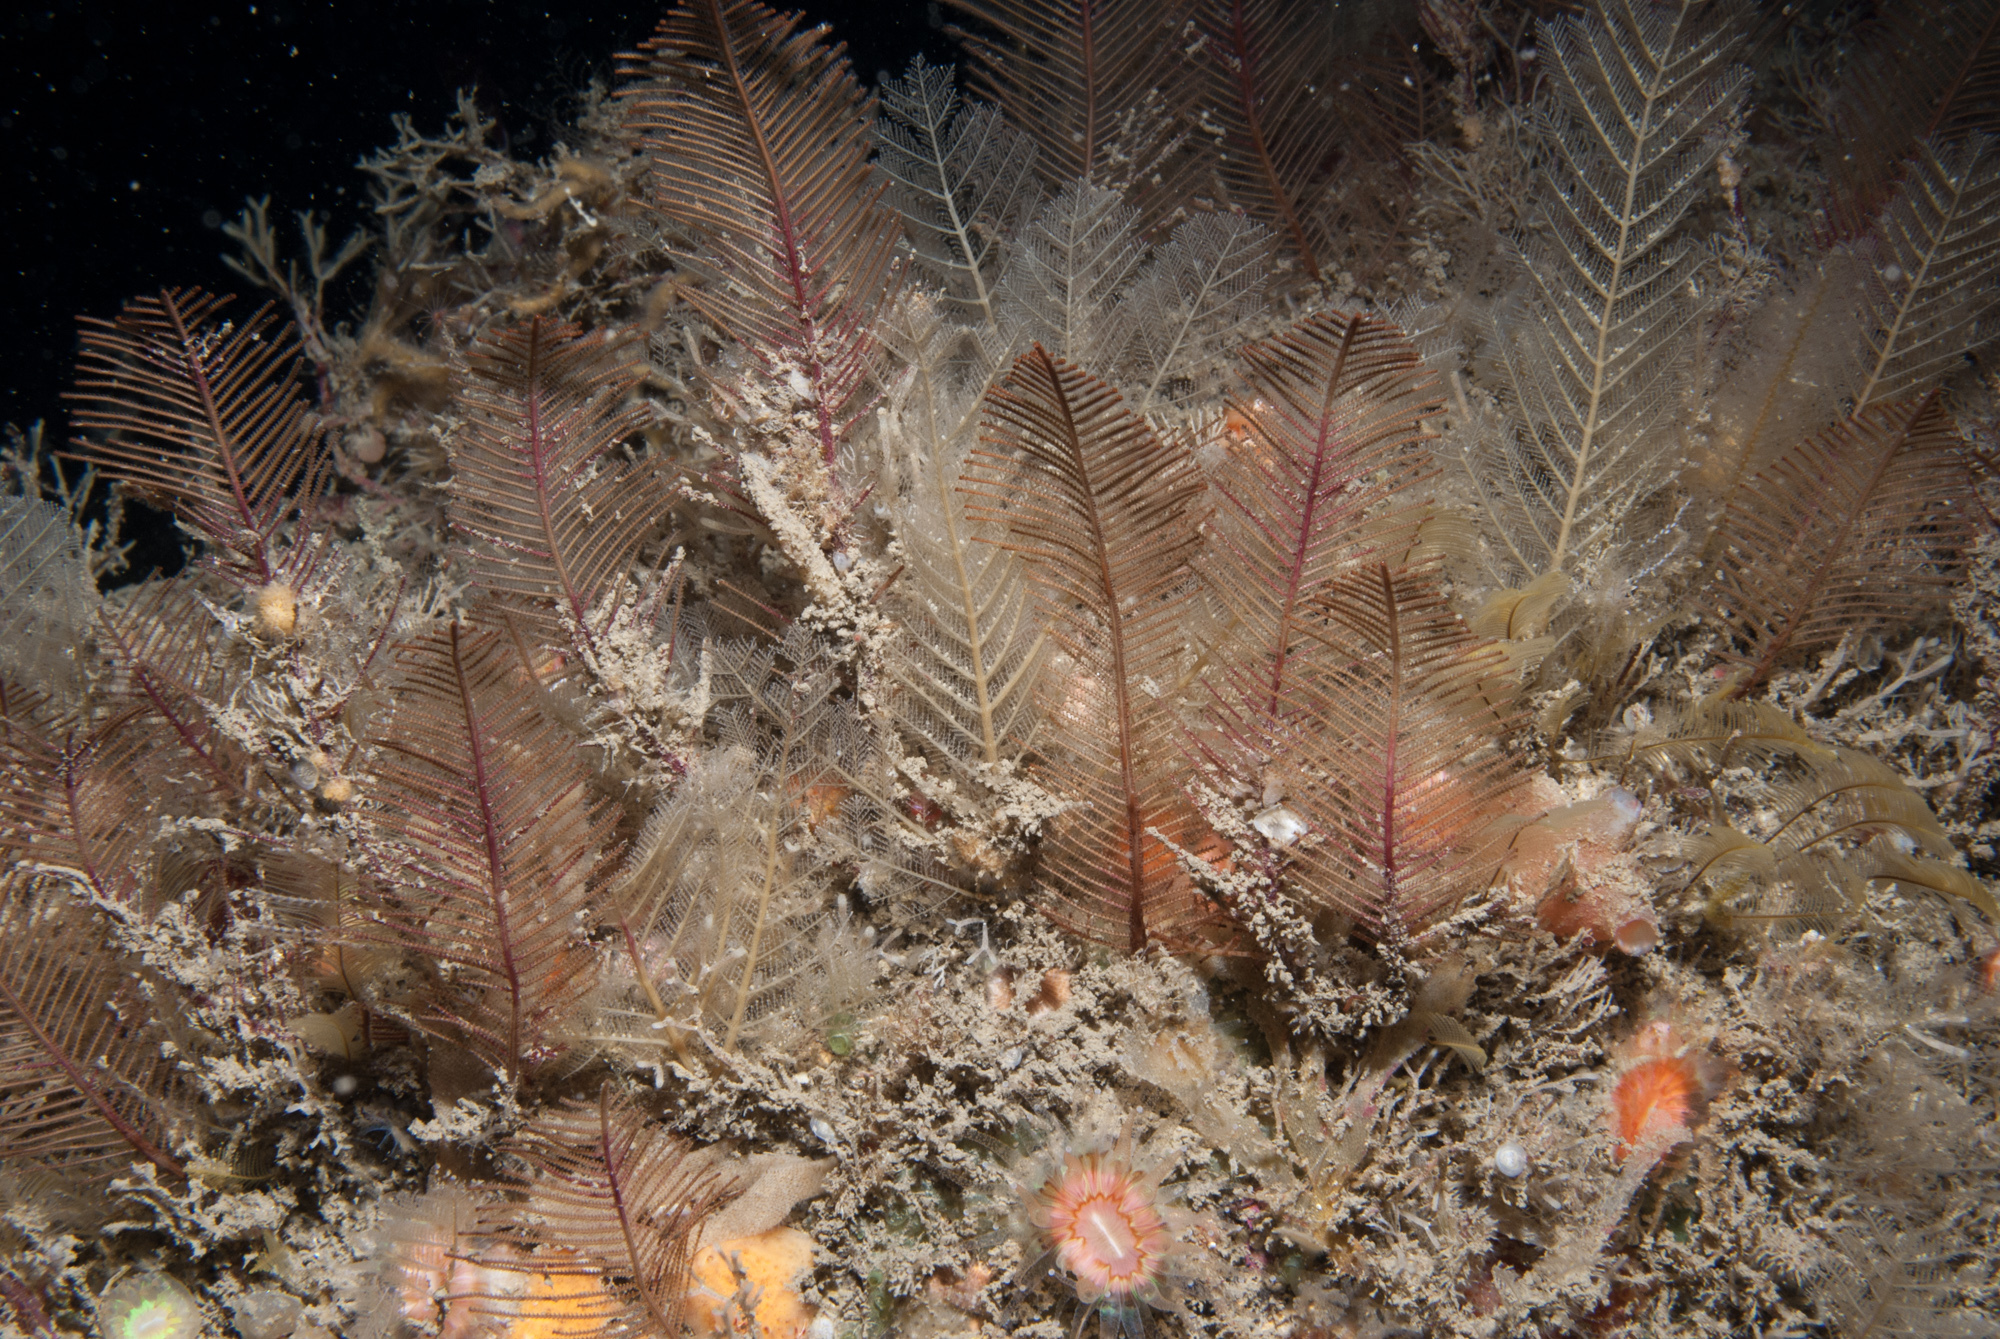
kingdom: Animalia
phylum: Cnidaria
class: Hydrozoa
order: Leptothecata
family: Sertulariidae
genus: Diphasia
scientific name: Diphasia alata
